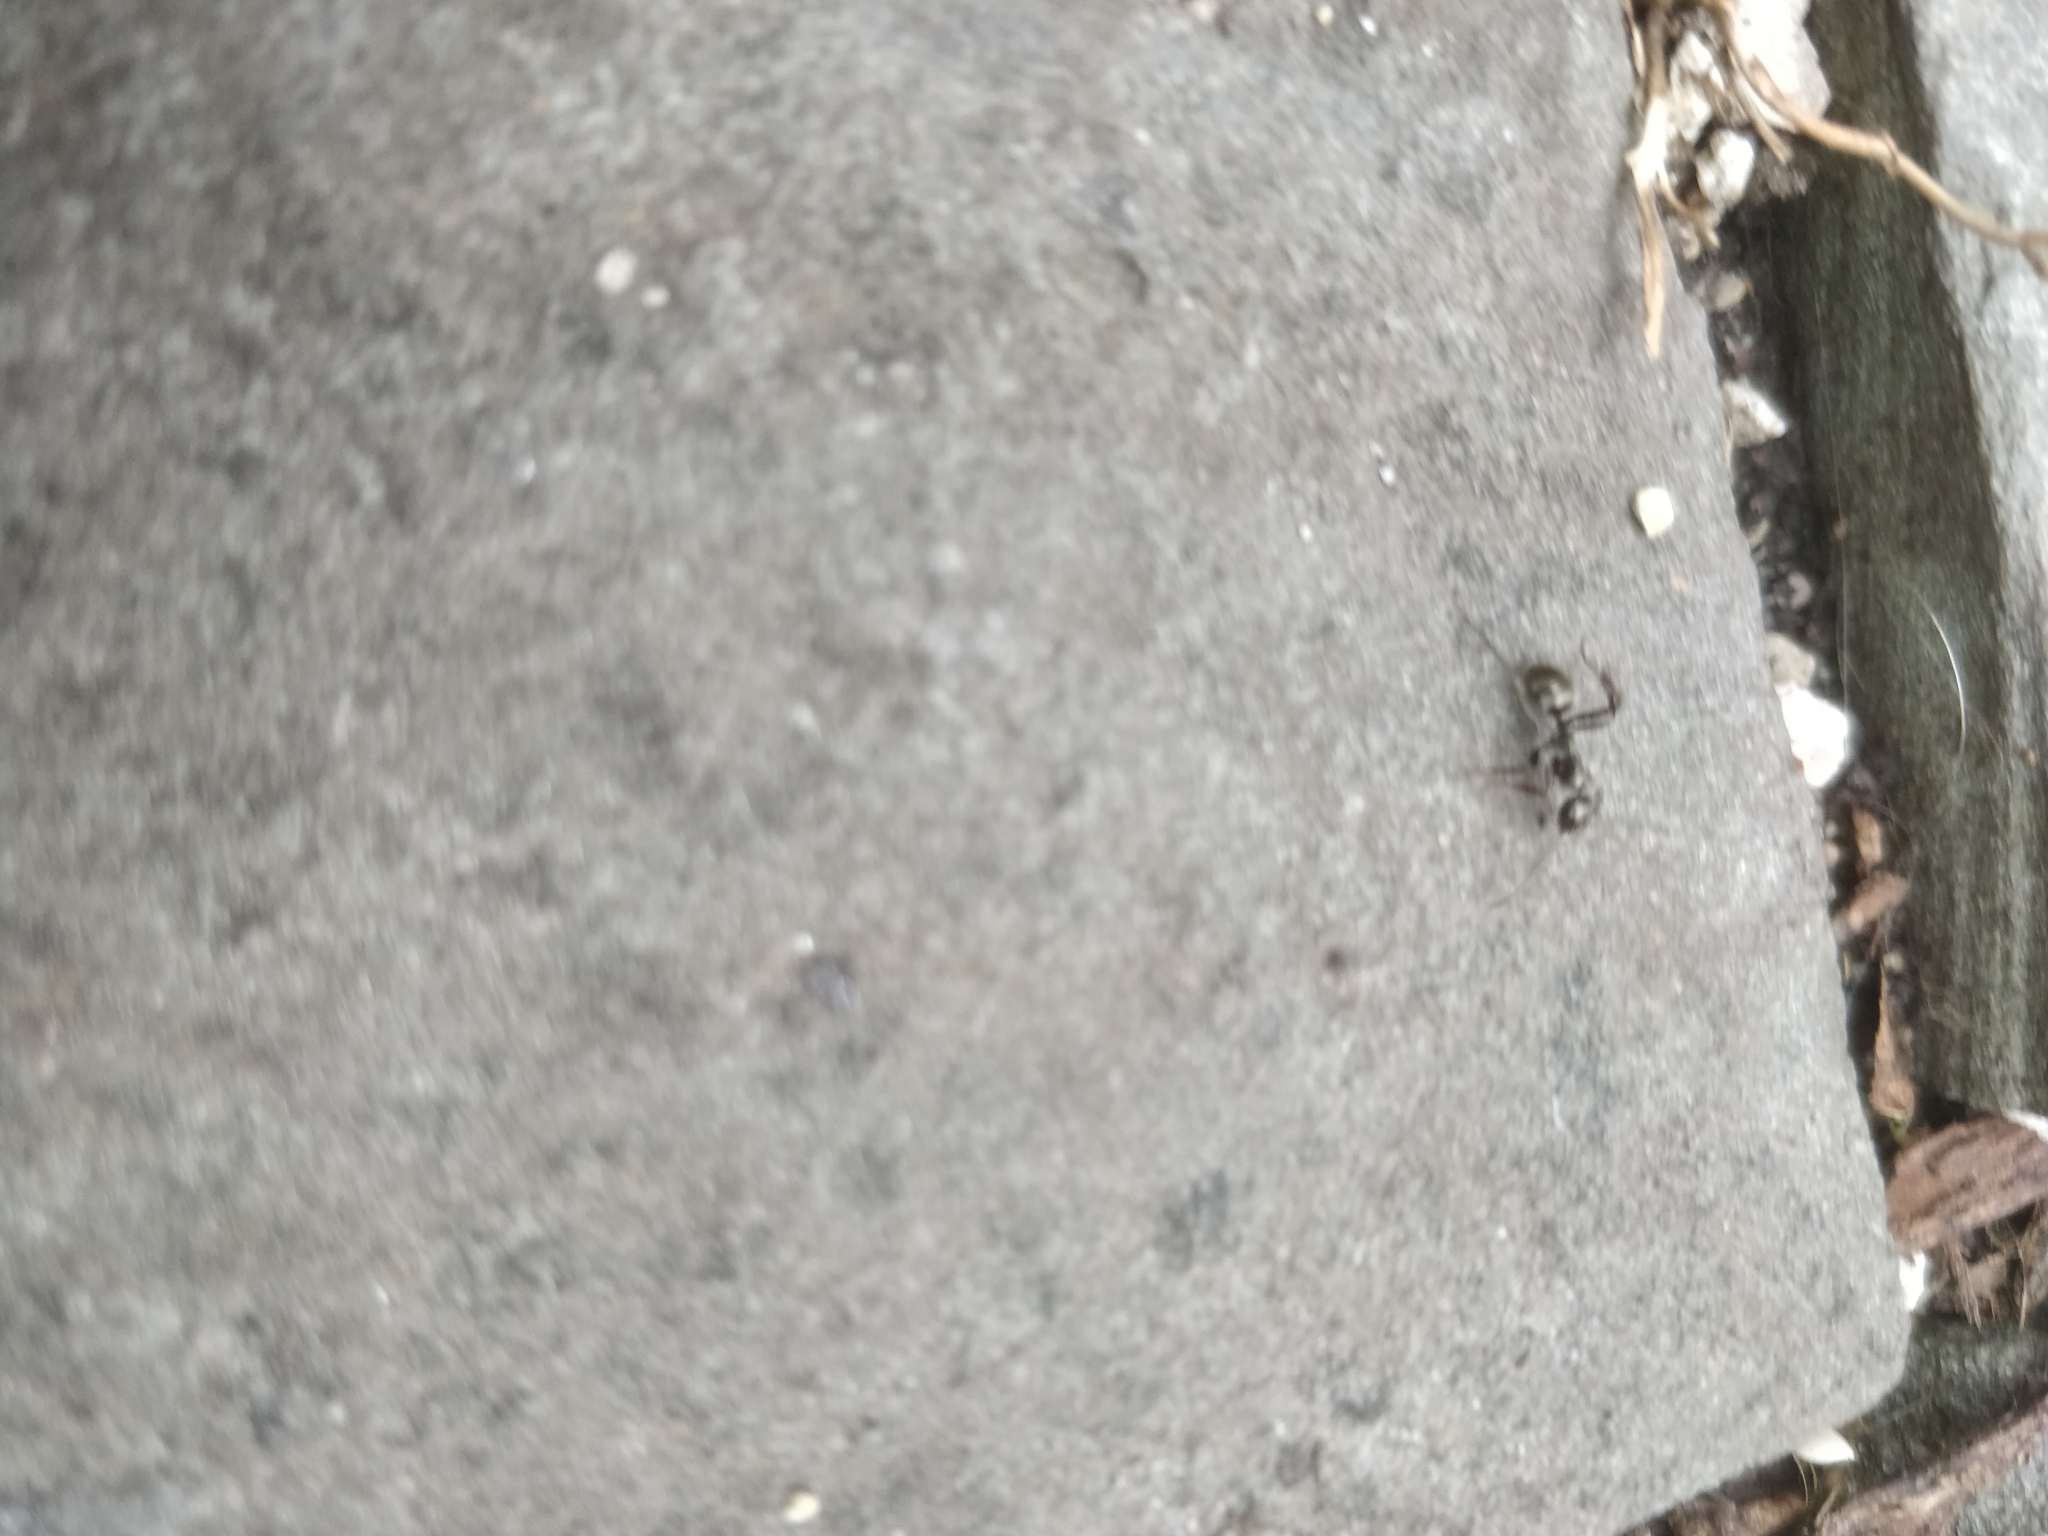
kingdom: Animalia
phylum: Arthropoda
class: Insecta
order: Hymenoptera
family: Formicidae
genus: Formica
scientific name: Formica subsericea
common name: Silky field ant
